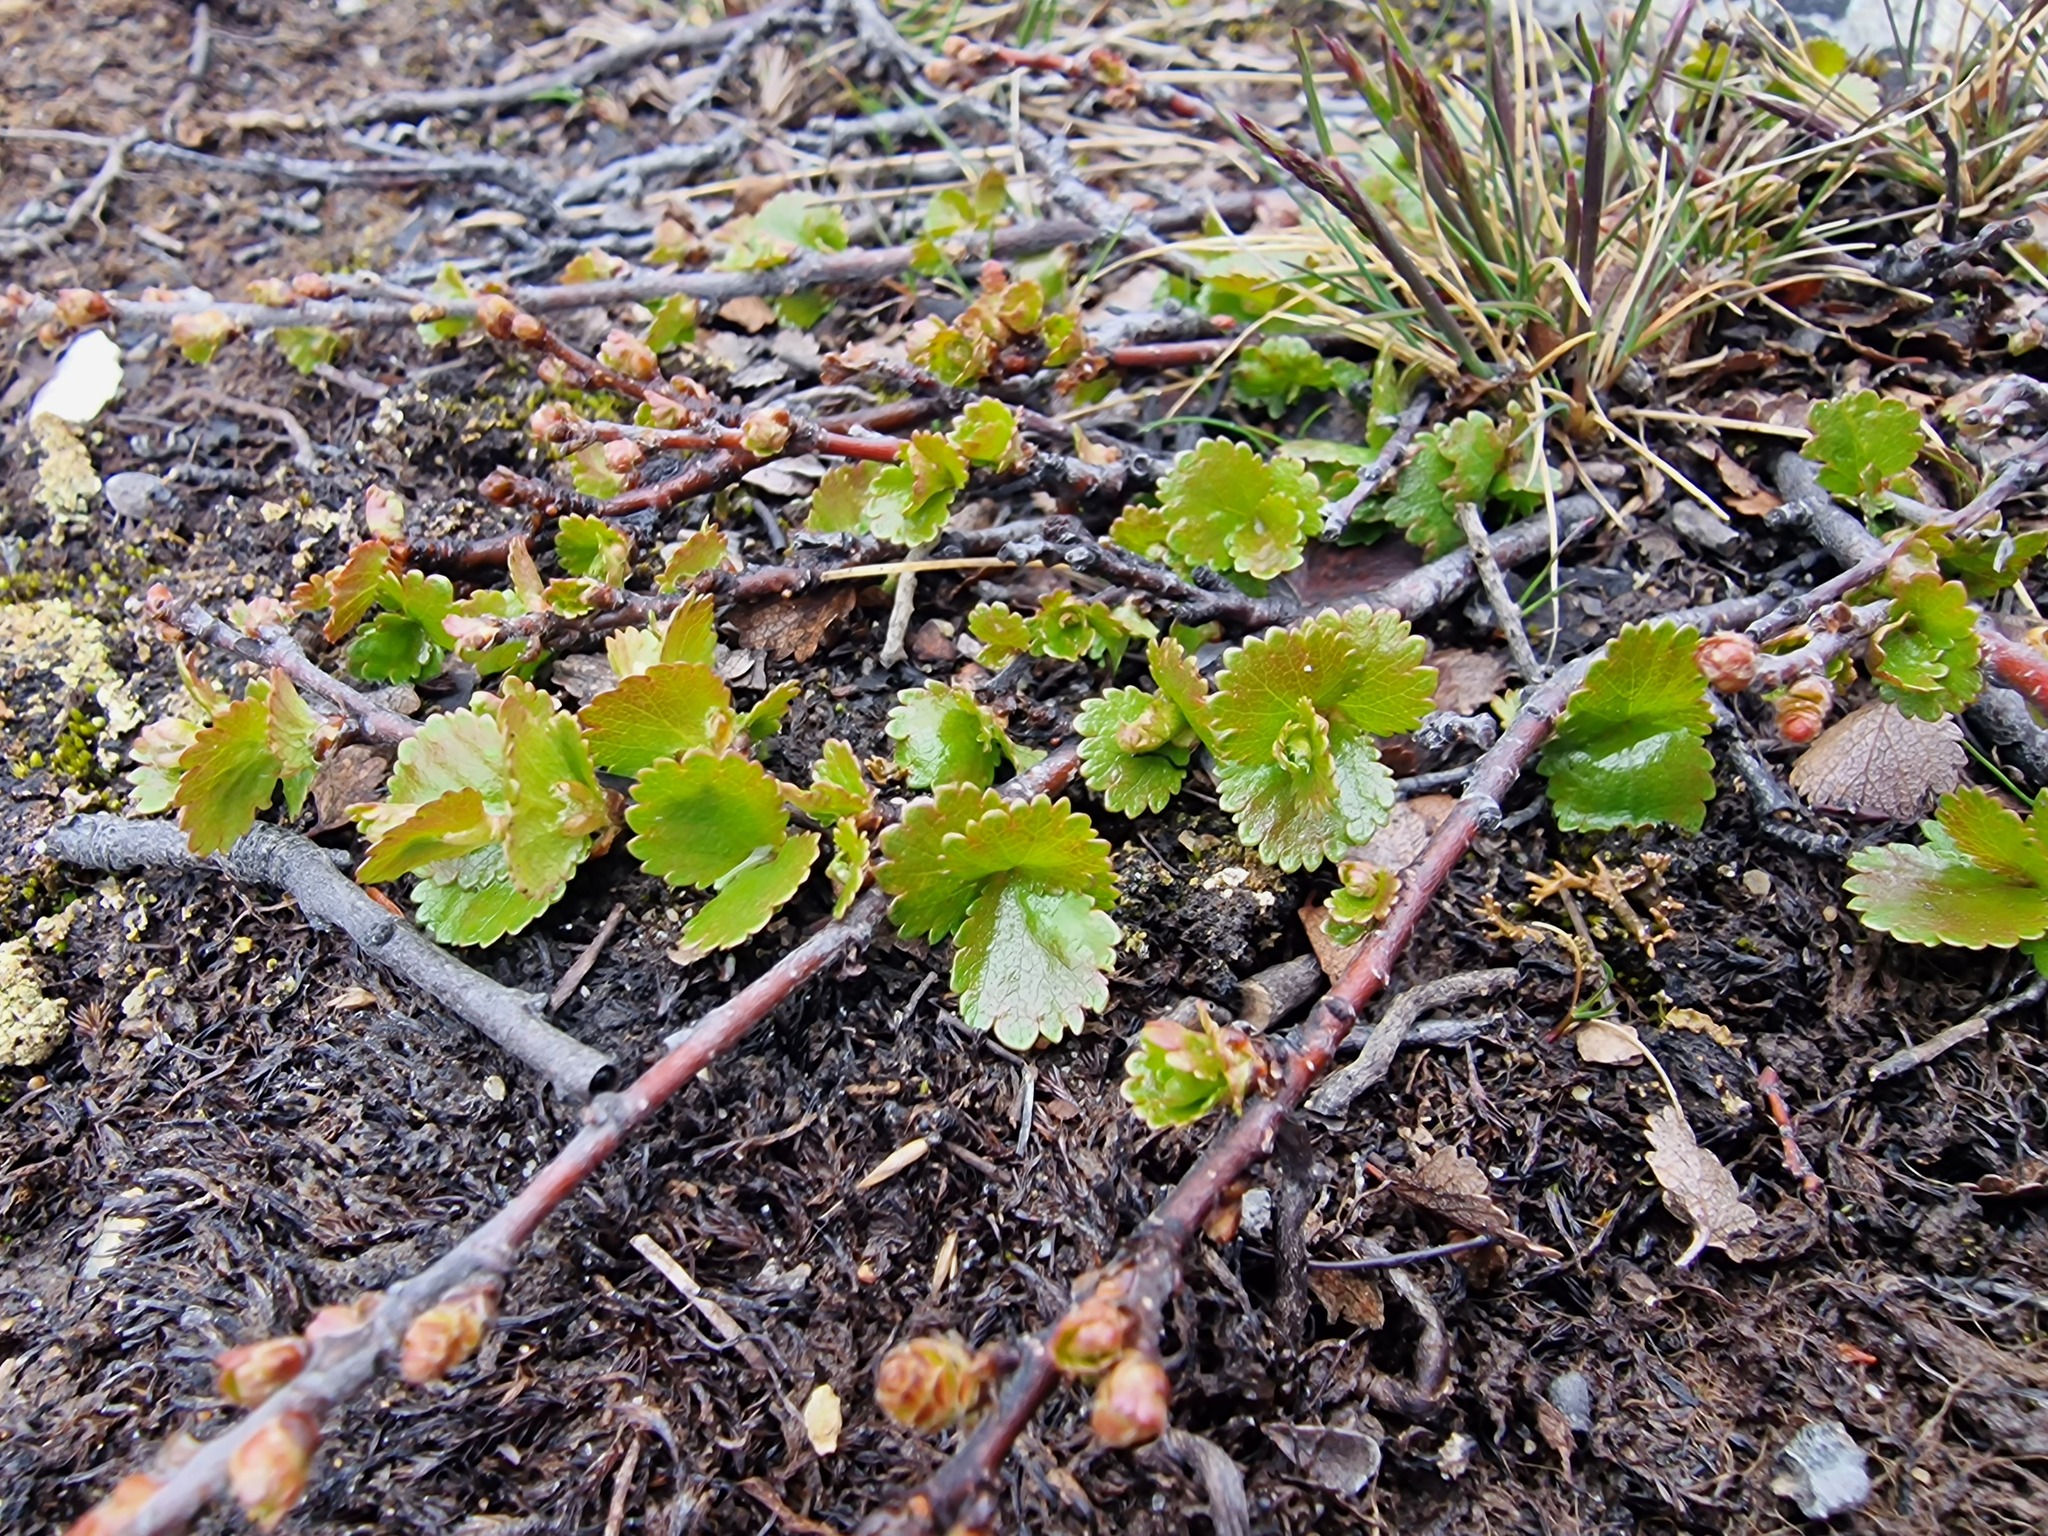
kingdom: Plantae
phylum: Tracheophyta
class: Magnoliopsida
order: Fagales
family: Betulaceae
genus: Betula
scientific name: Betula nana
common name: Arctic dwarf birch
